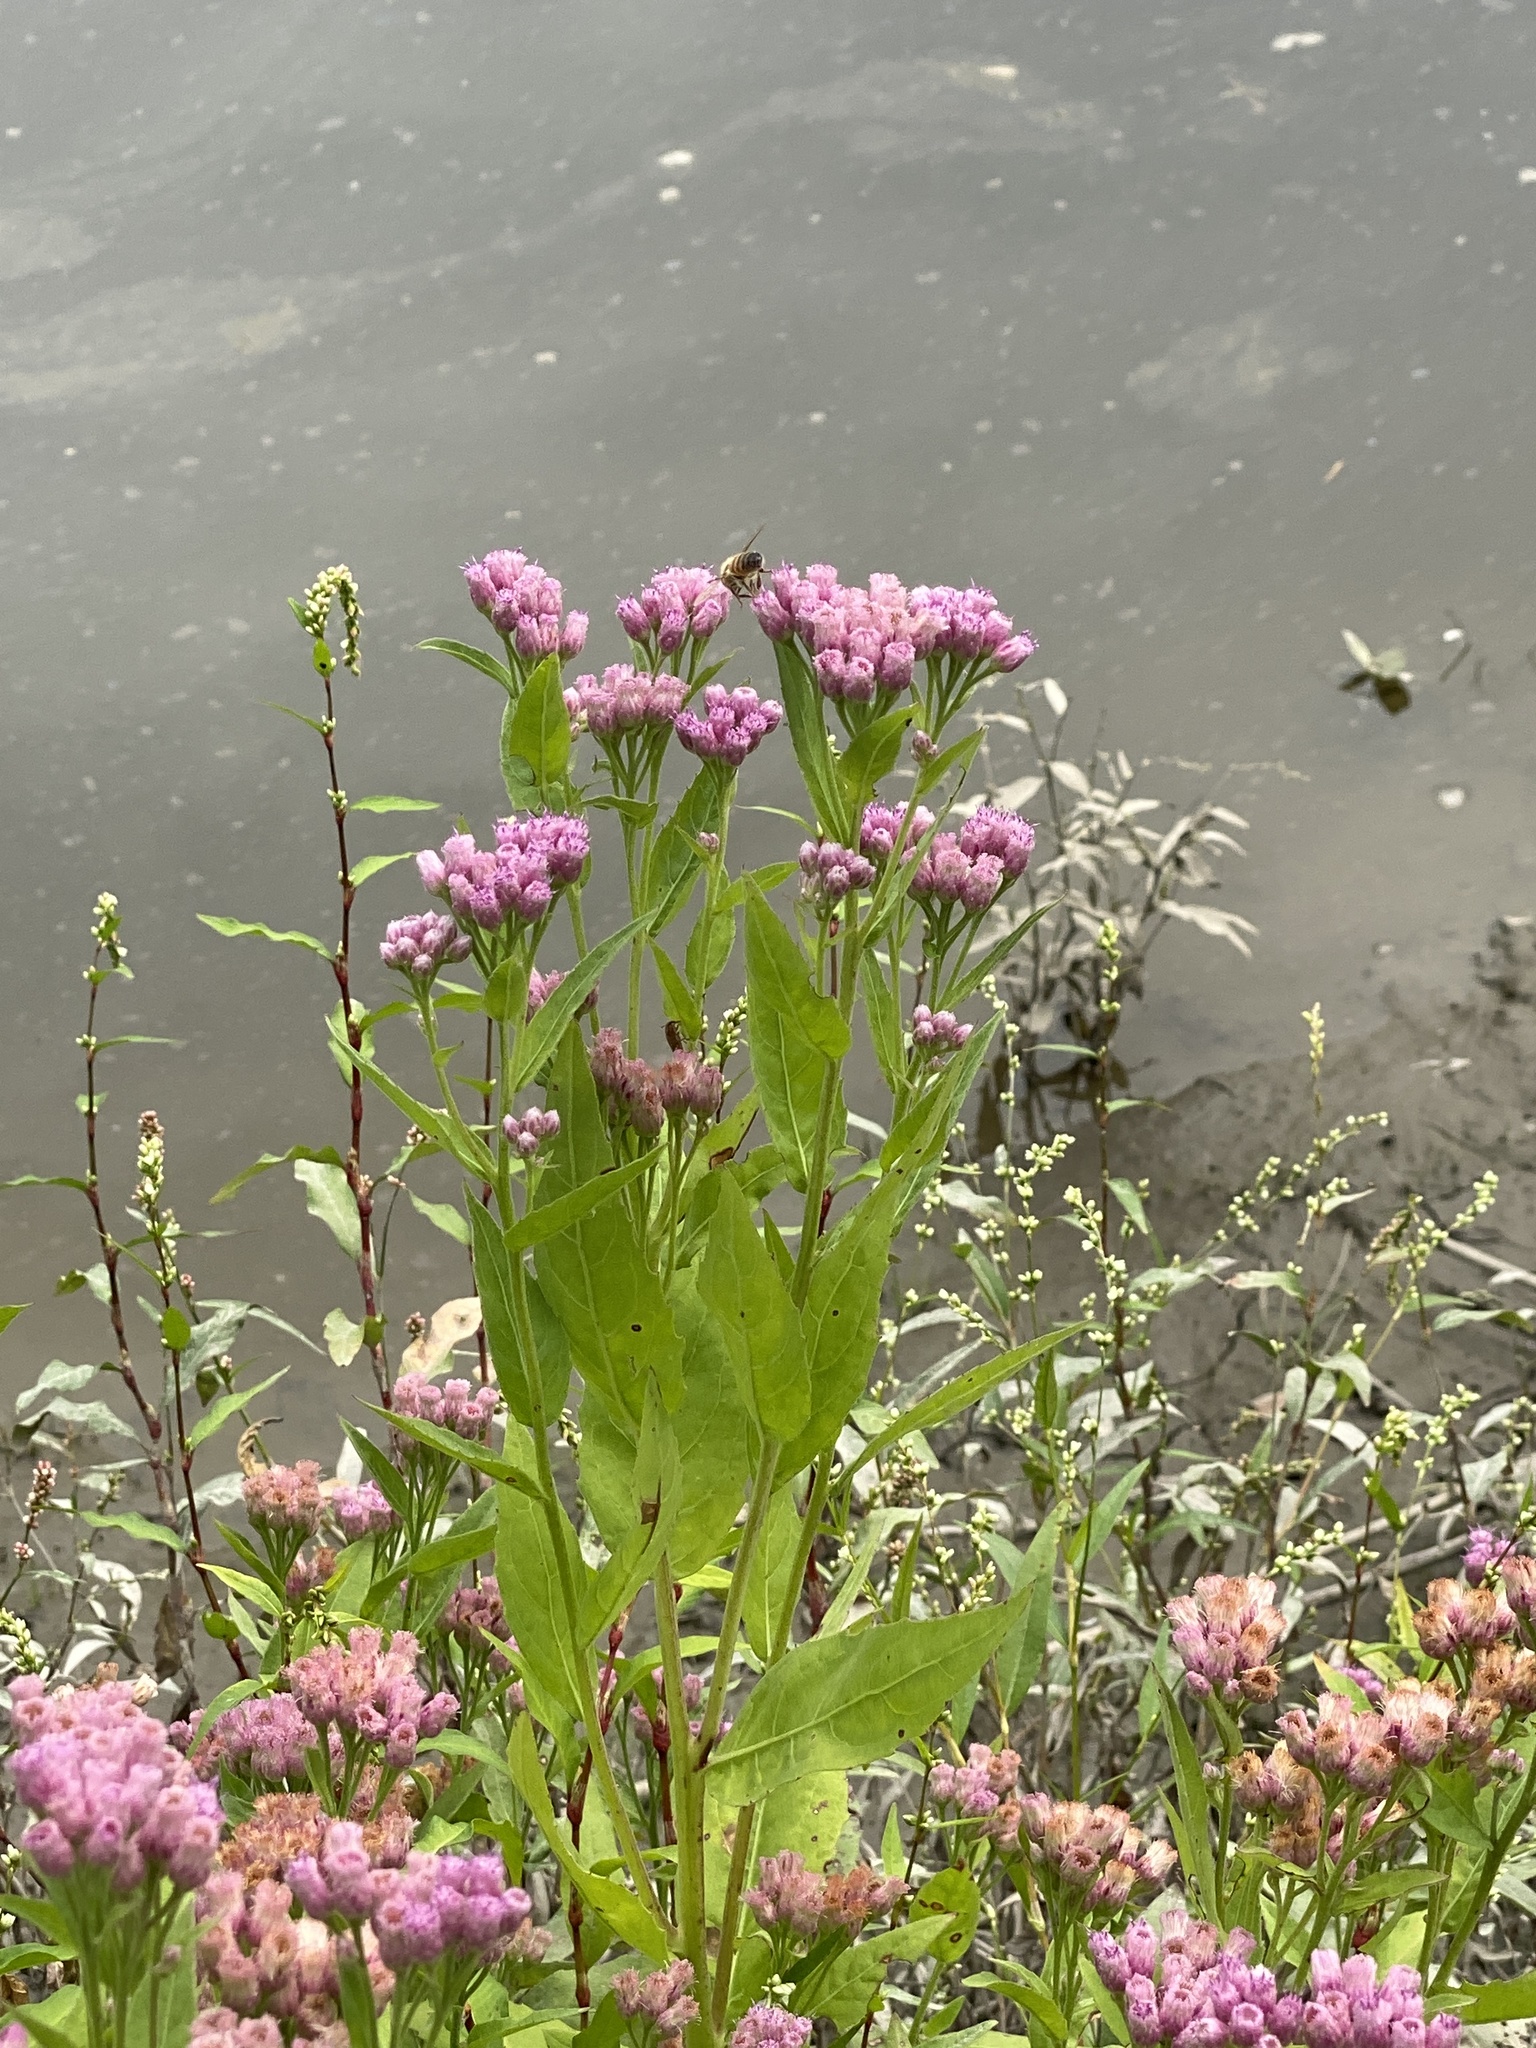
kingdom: Plantae
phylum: Tracheophyta
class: Magnoliopsida
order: Asterales
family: Asteraceae
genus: Pluchea
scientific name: Pluchea odorata
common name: Saltmarsh fleabane
